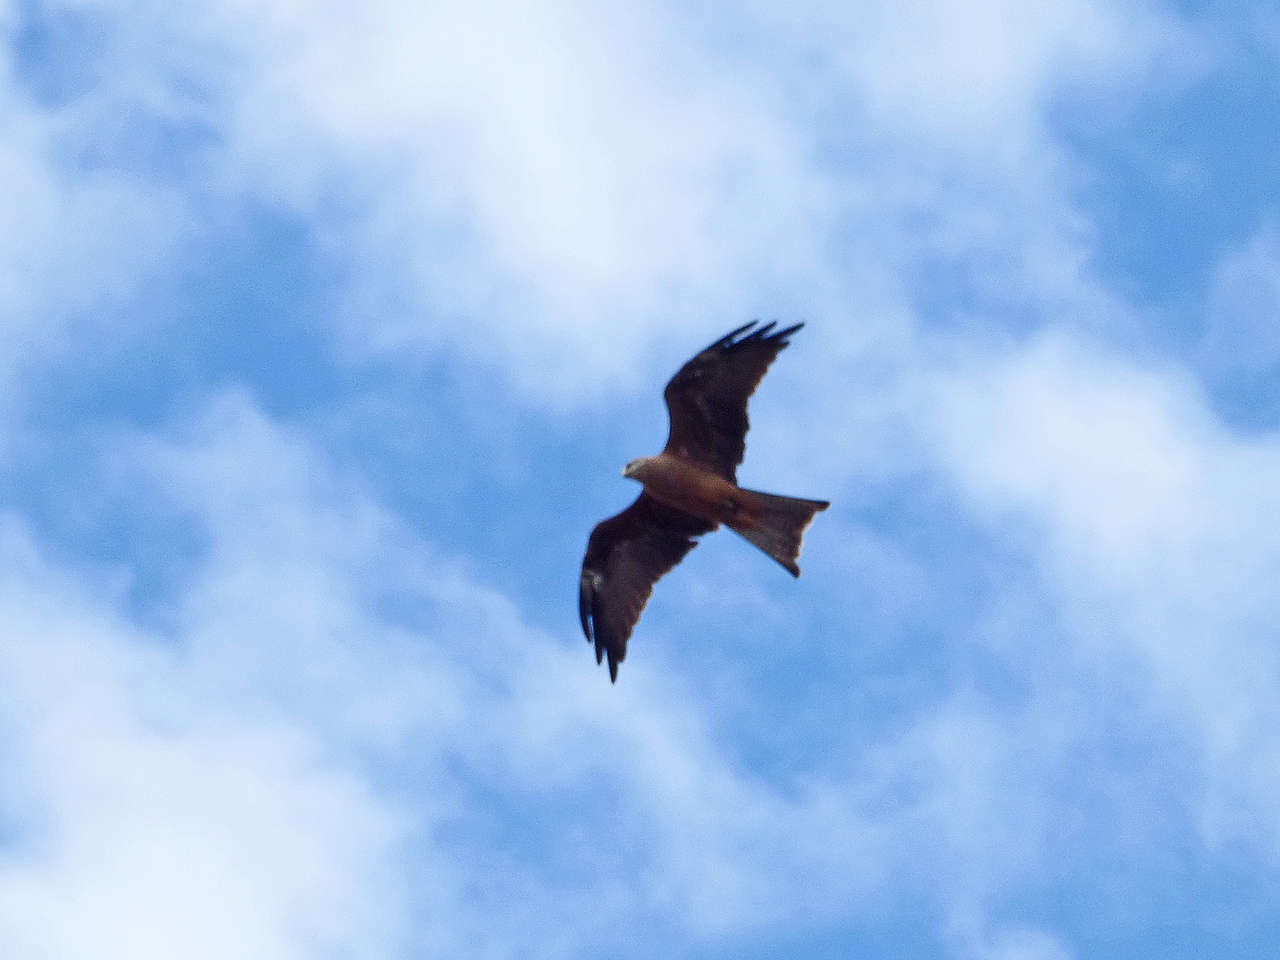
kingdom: Animalia
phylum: Chordata
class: Aves
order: Accipitriformes
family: Accipitridae
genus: Milvus
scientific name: Milvus migrans
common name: Black kite
